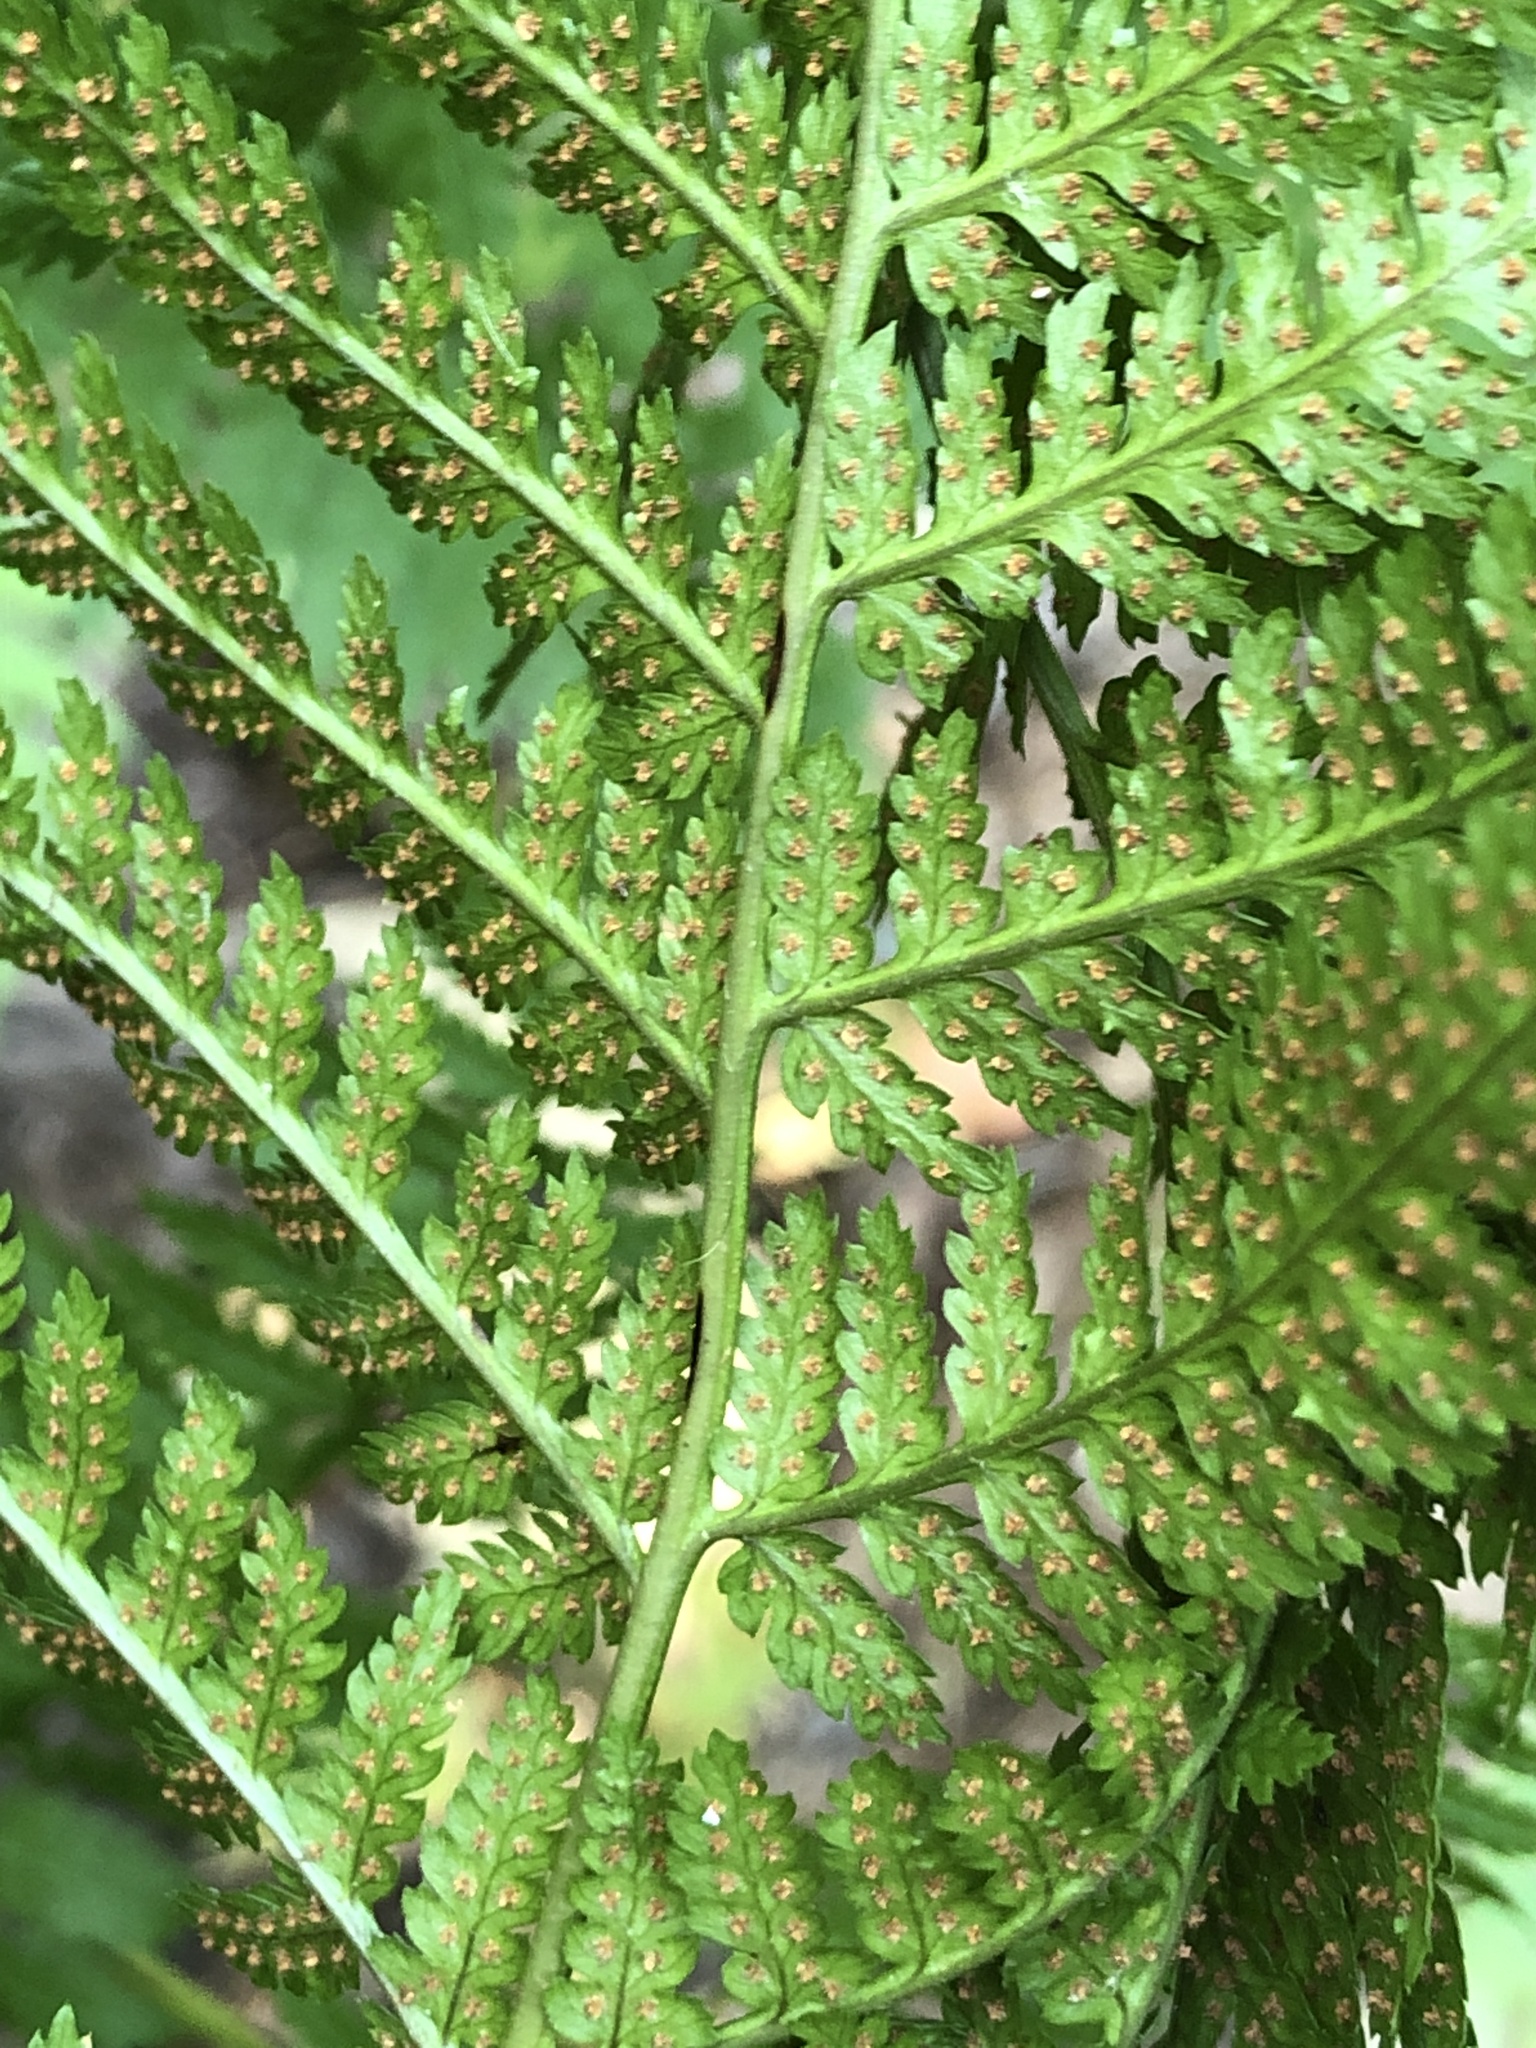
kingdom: Plantae
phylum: Tracheophyta
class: Polypodiopsida
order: Polypodiales
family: Dryopteridaceae
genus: Dryopteris
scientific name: Dryopteris intermedia
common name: Evergreen wood fern
